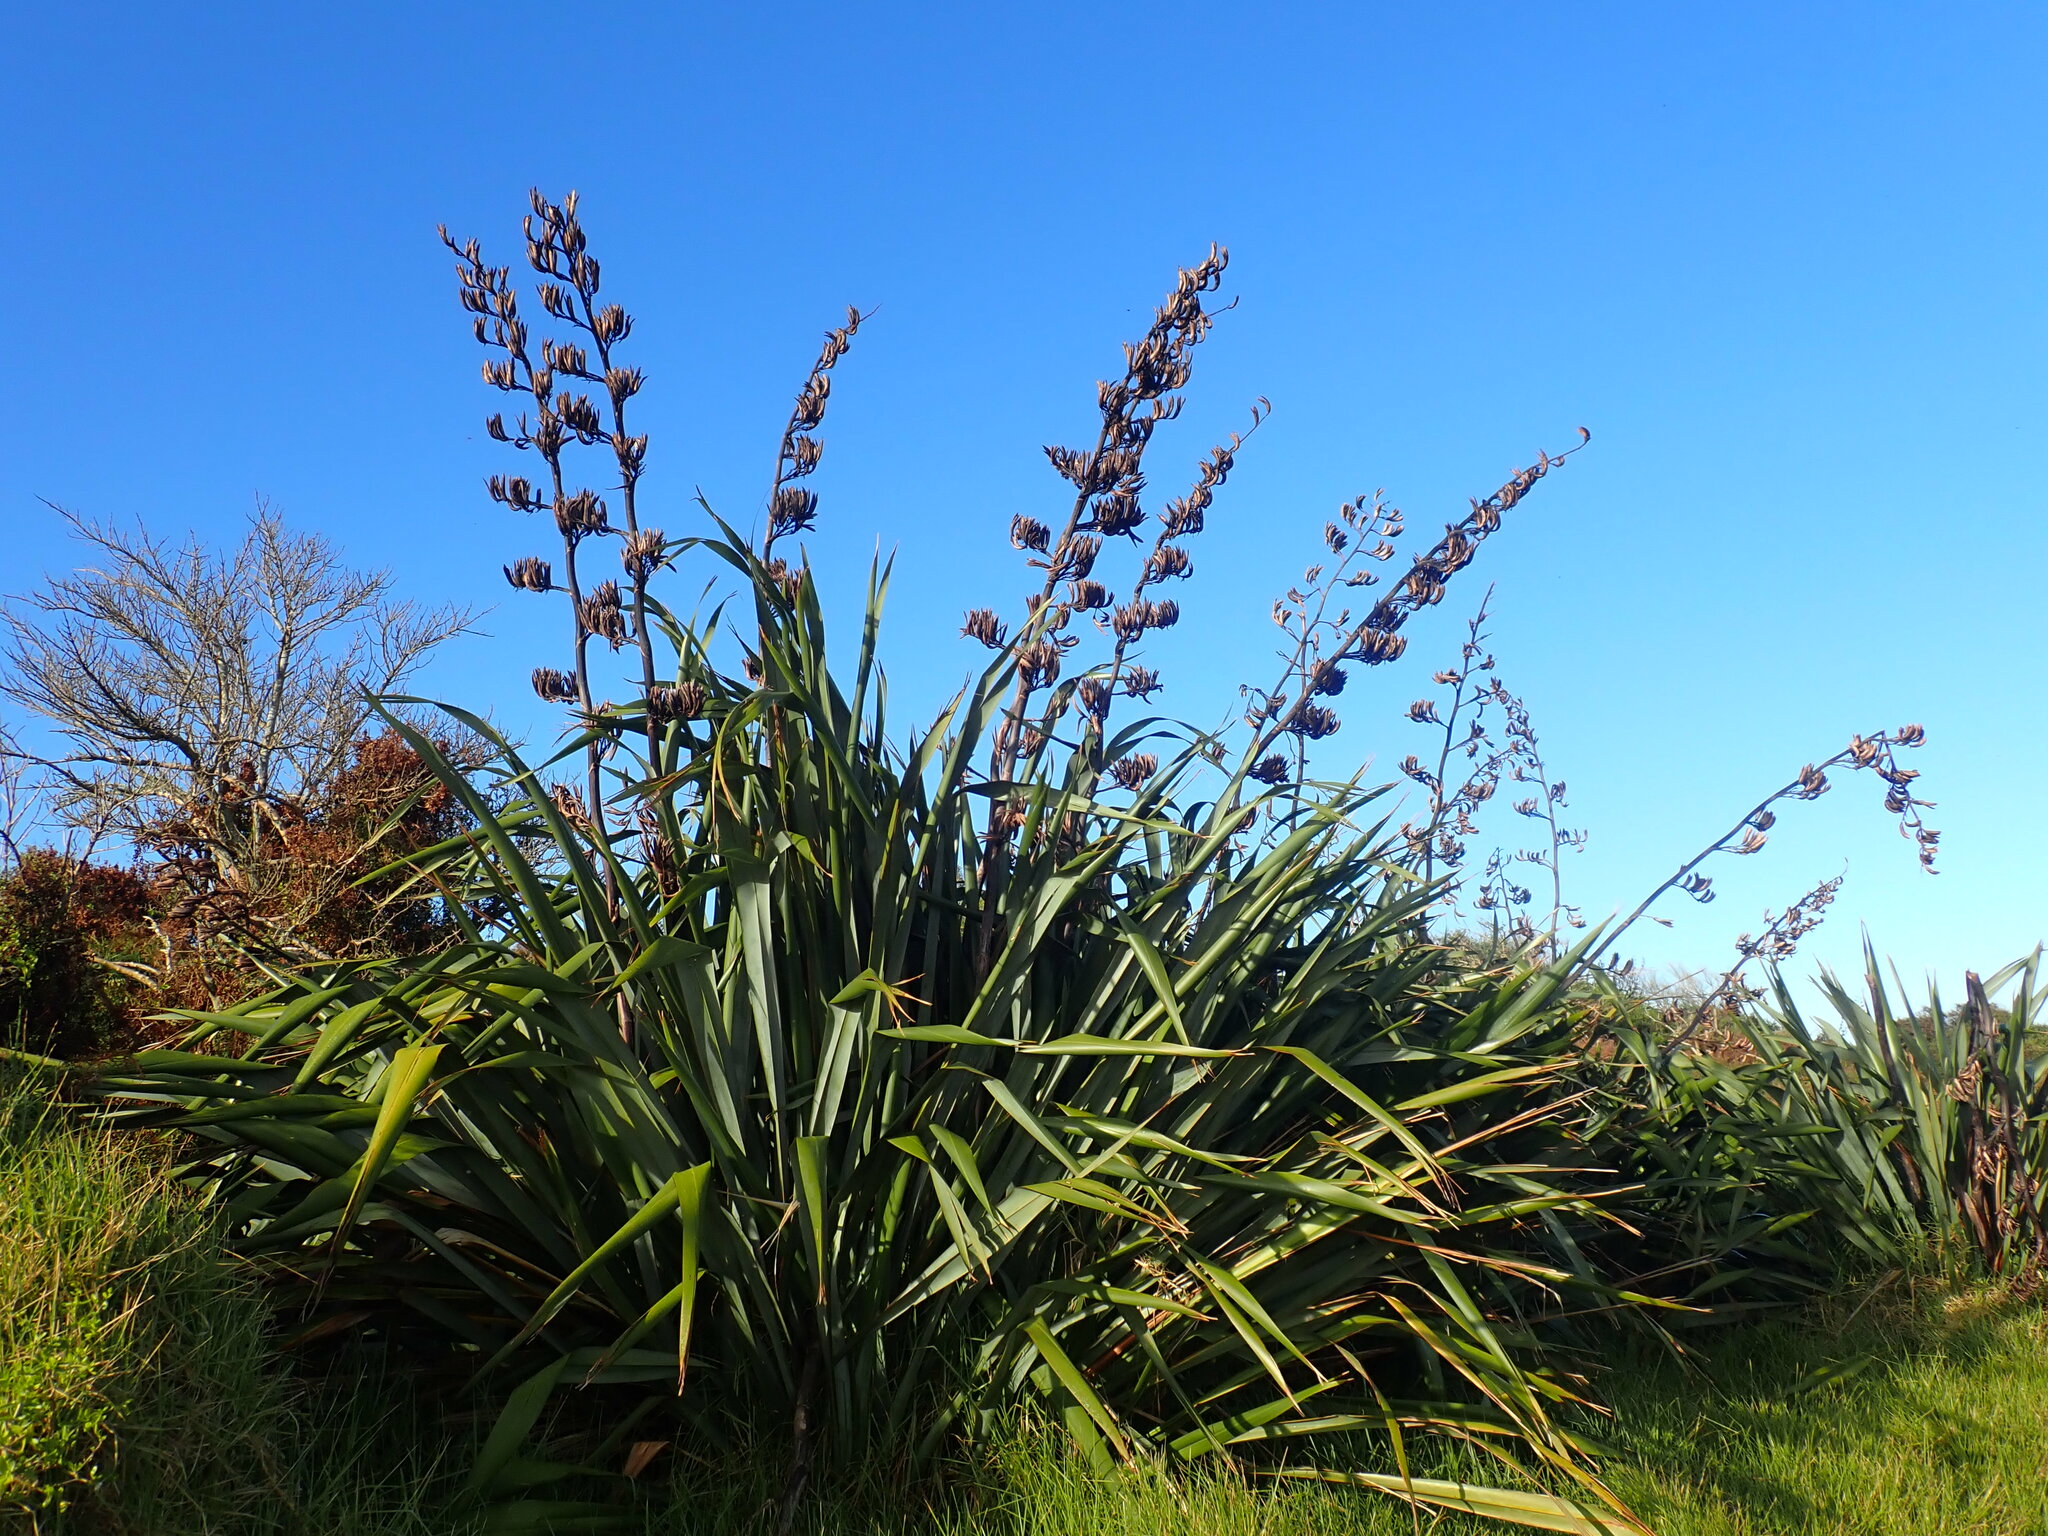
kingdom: Plantae
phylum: Tracheophyta
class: Liliopsida
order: Asparagales
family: Asphodelaceae
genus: Phormium
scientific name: Phormium tenax
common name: New zealand flax
